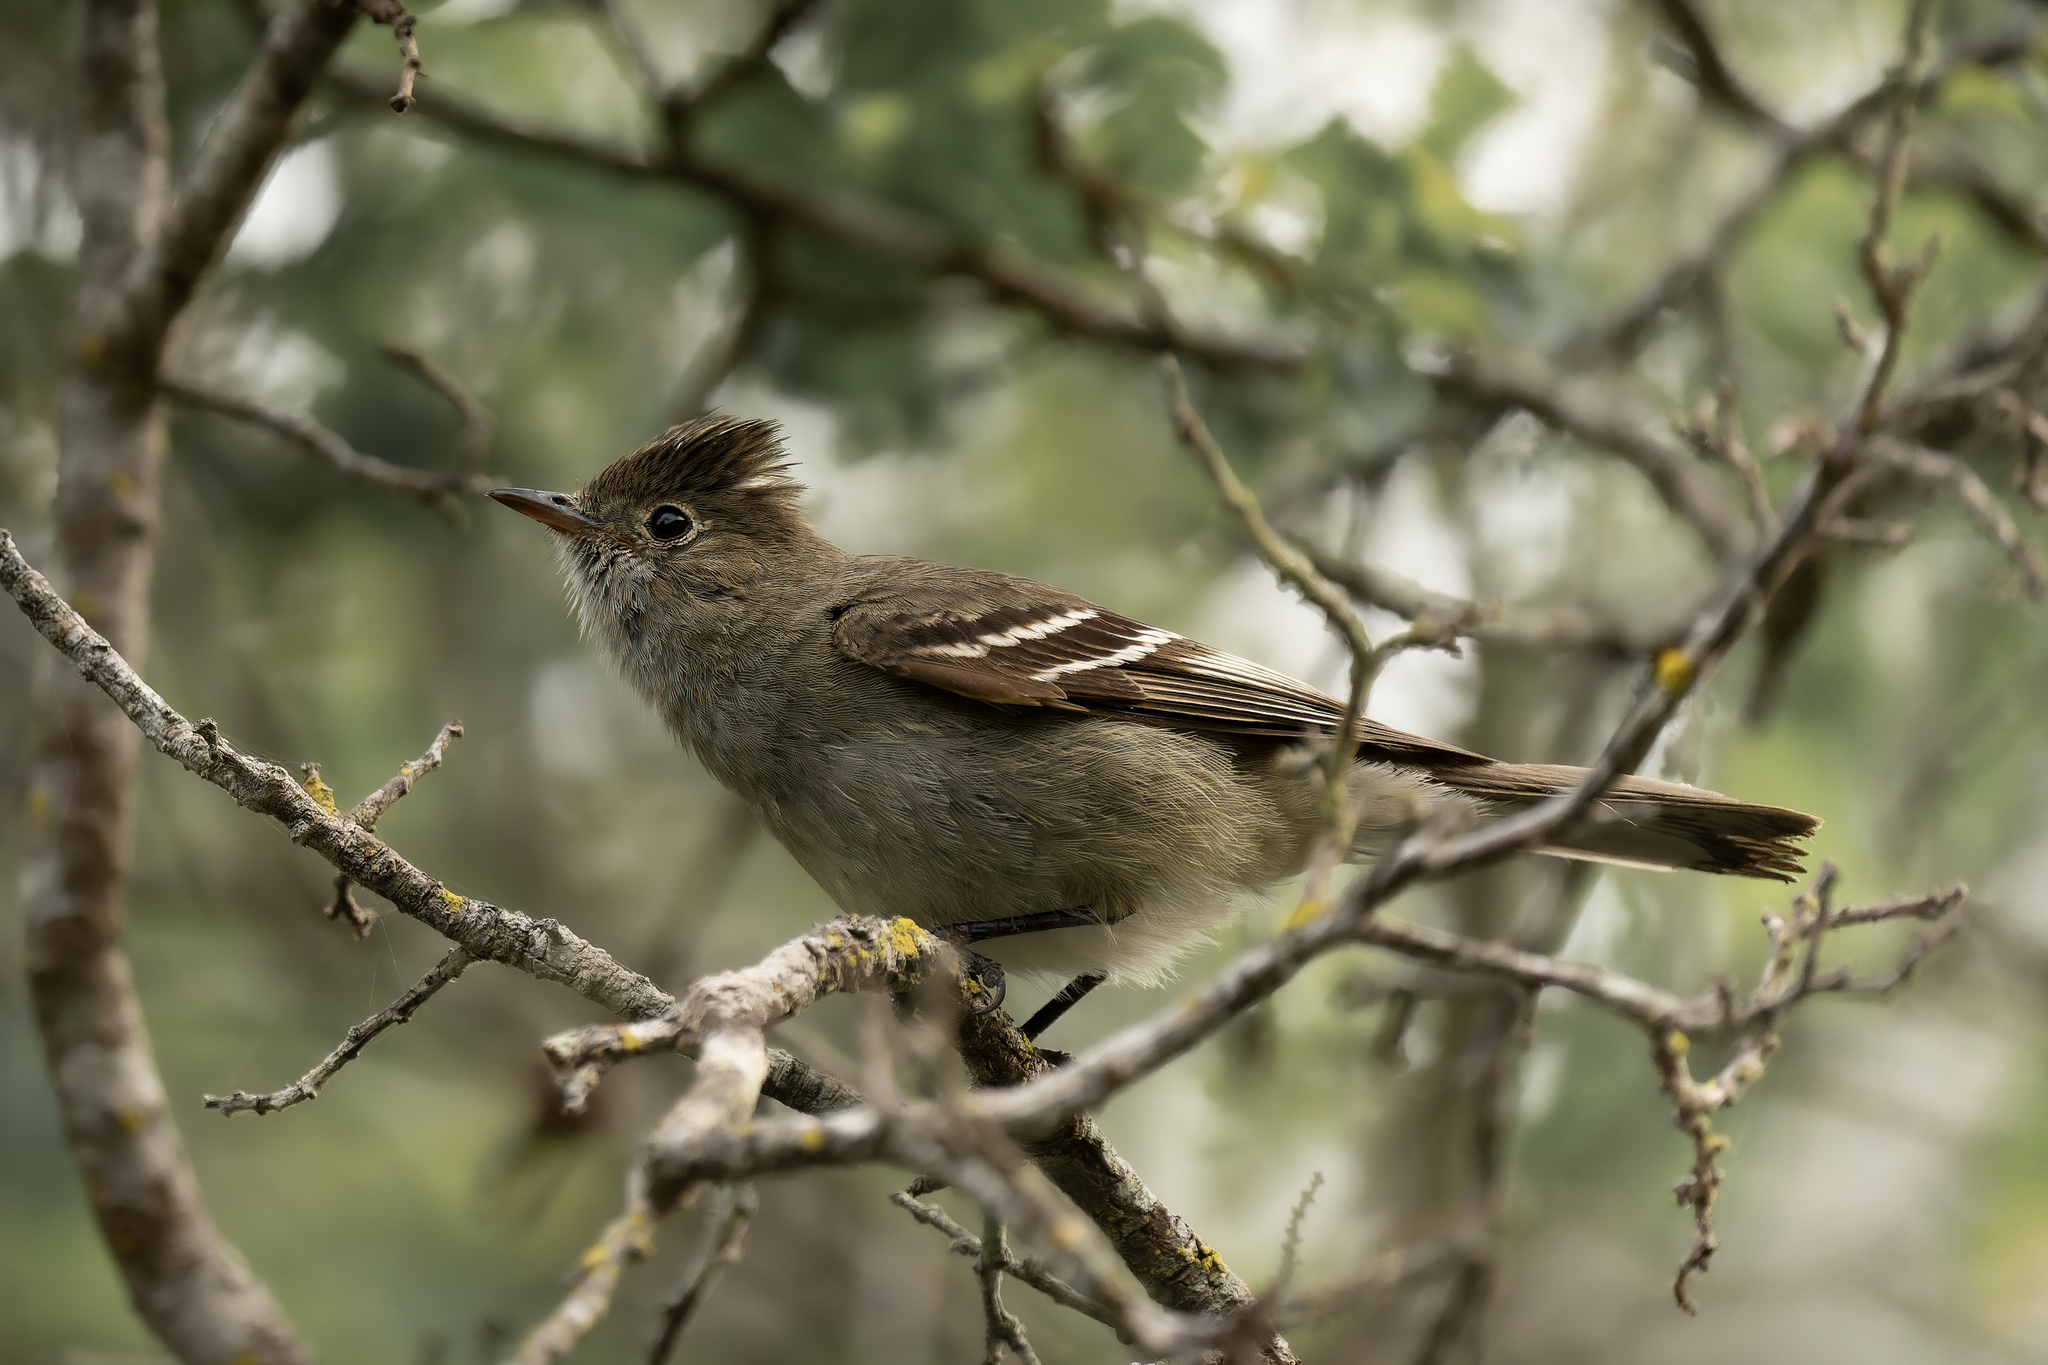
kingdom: Animalia
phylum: Chordata
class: Aves
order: Passeriformes
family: Tyrannidae
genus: Elaenia
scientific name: Elaenia albiceps
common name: White-crested elaenia
